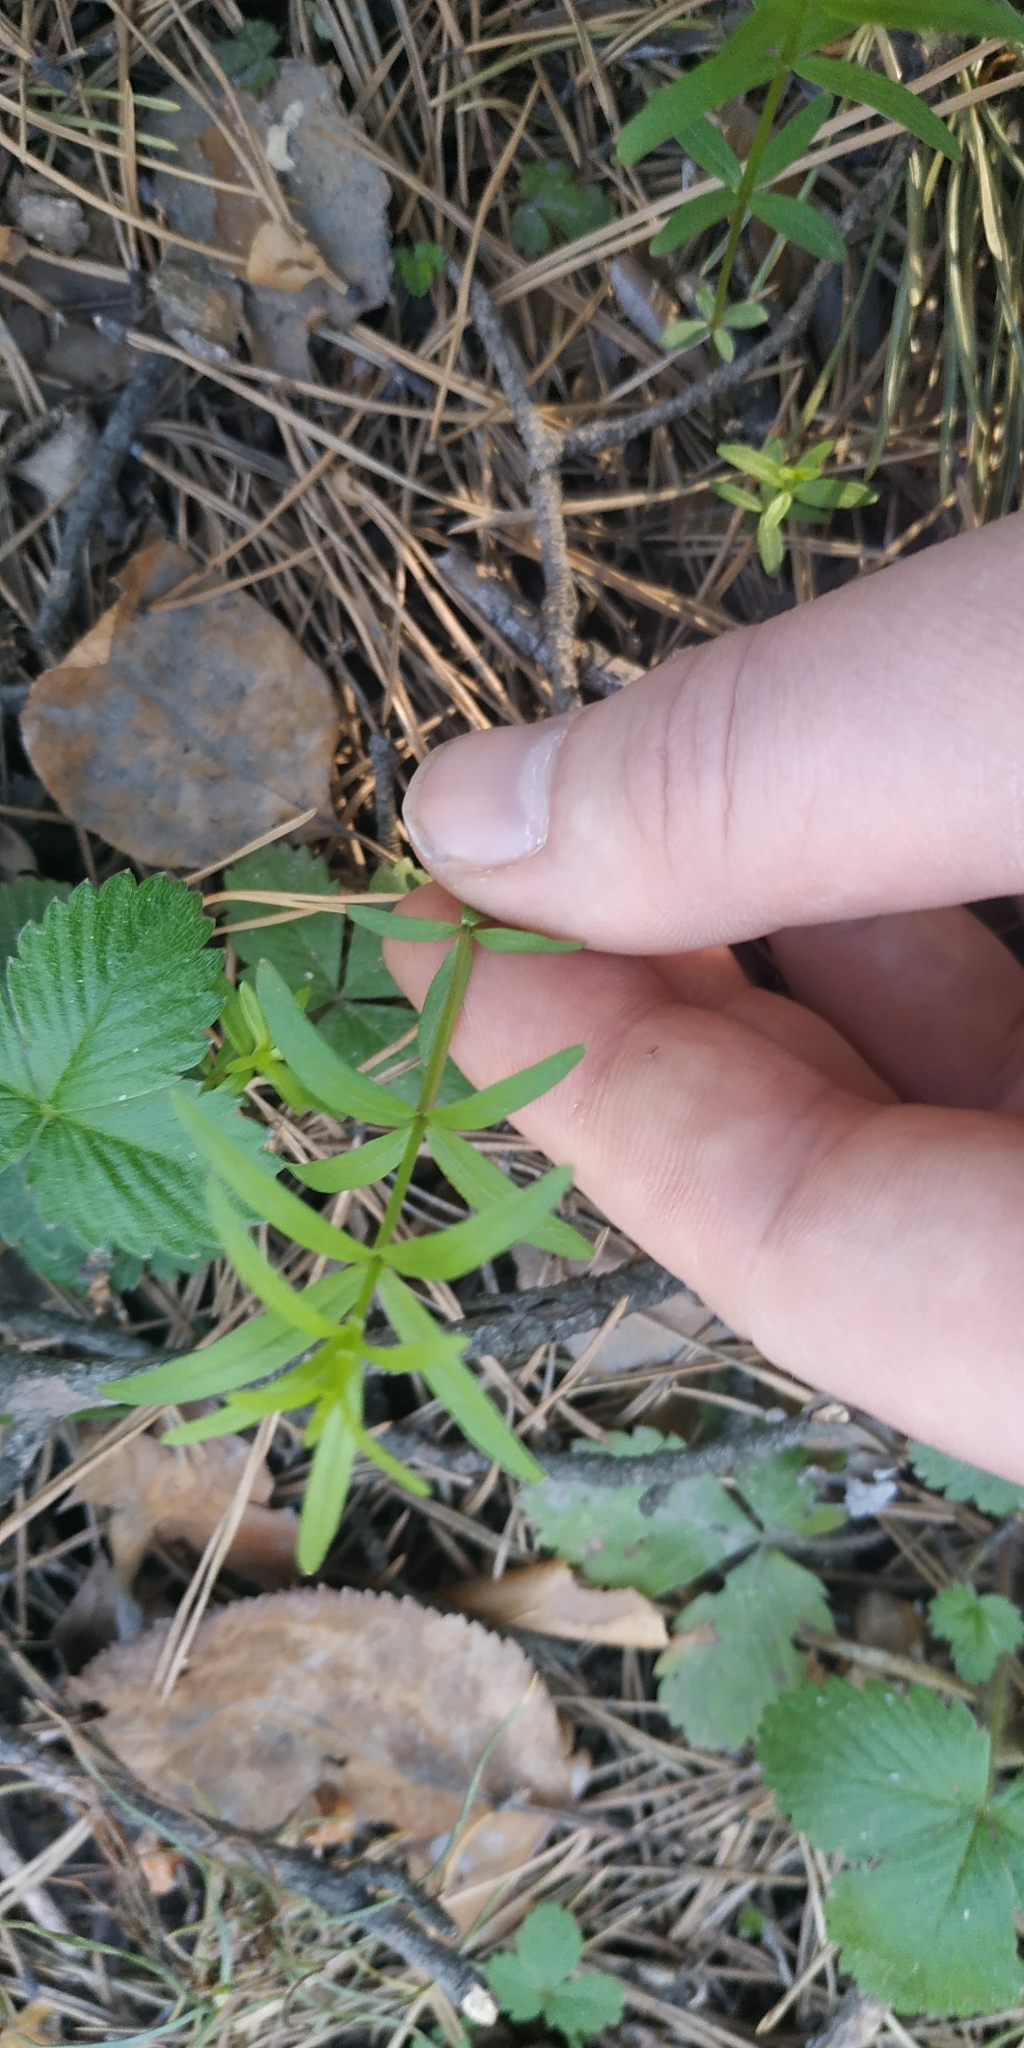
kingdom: Plantae
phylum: Tracheophyta
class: Magnoliopsida
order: Gentianales
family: Rubiaceae
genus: Galium
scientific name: Galium boreale
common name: Northern bedstraw
